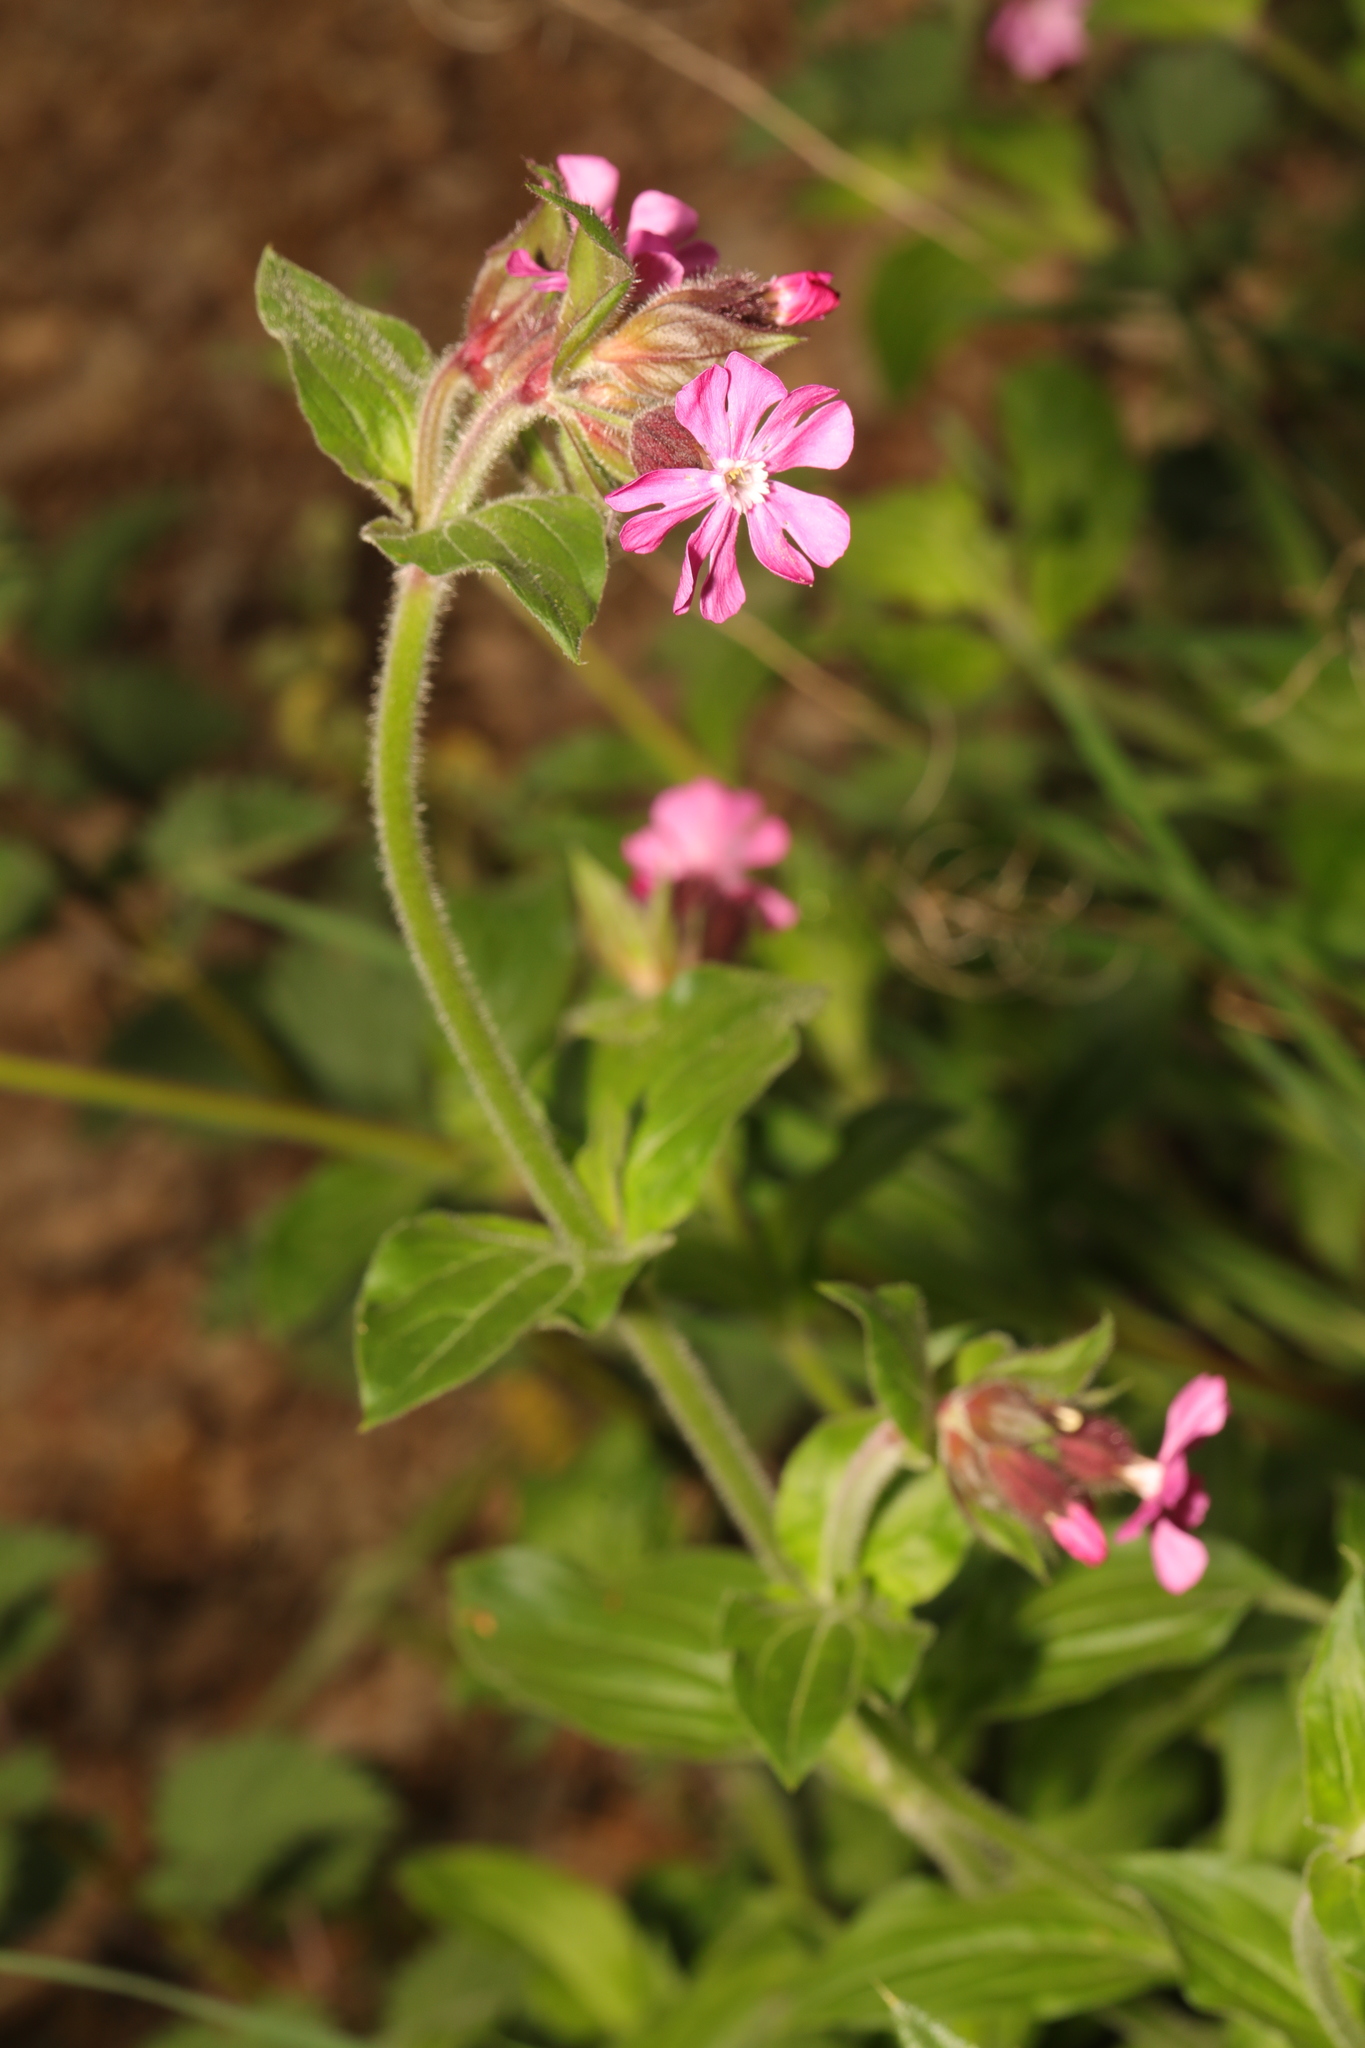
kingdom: Plantae
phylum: Tracheophyta
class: Magnoliopsida
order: Caryophyllales
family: Caryophyllaceae
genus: Silene
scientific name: Silene dioica
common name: Red campion
